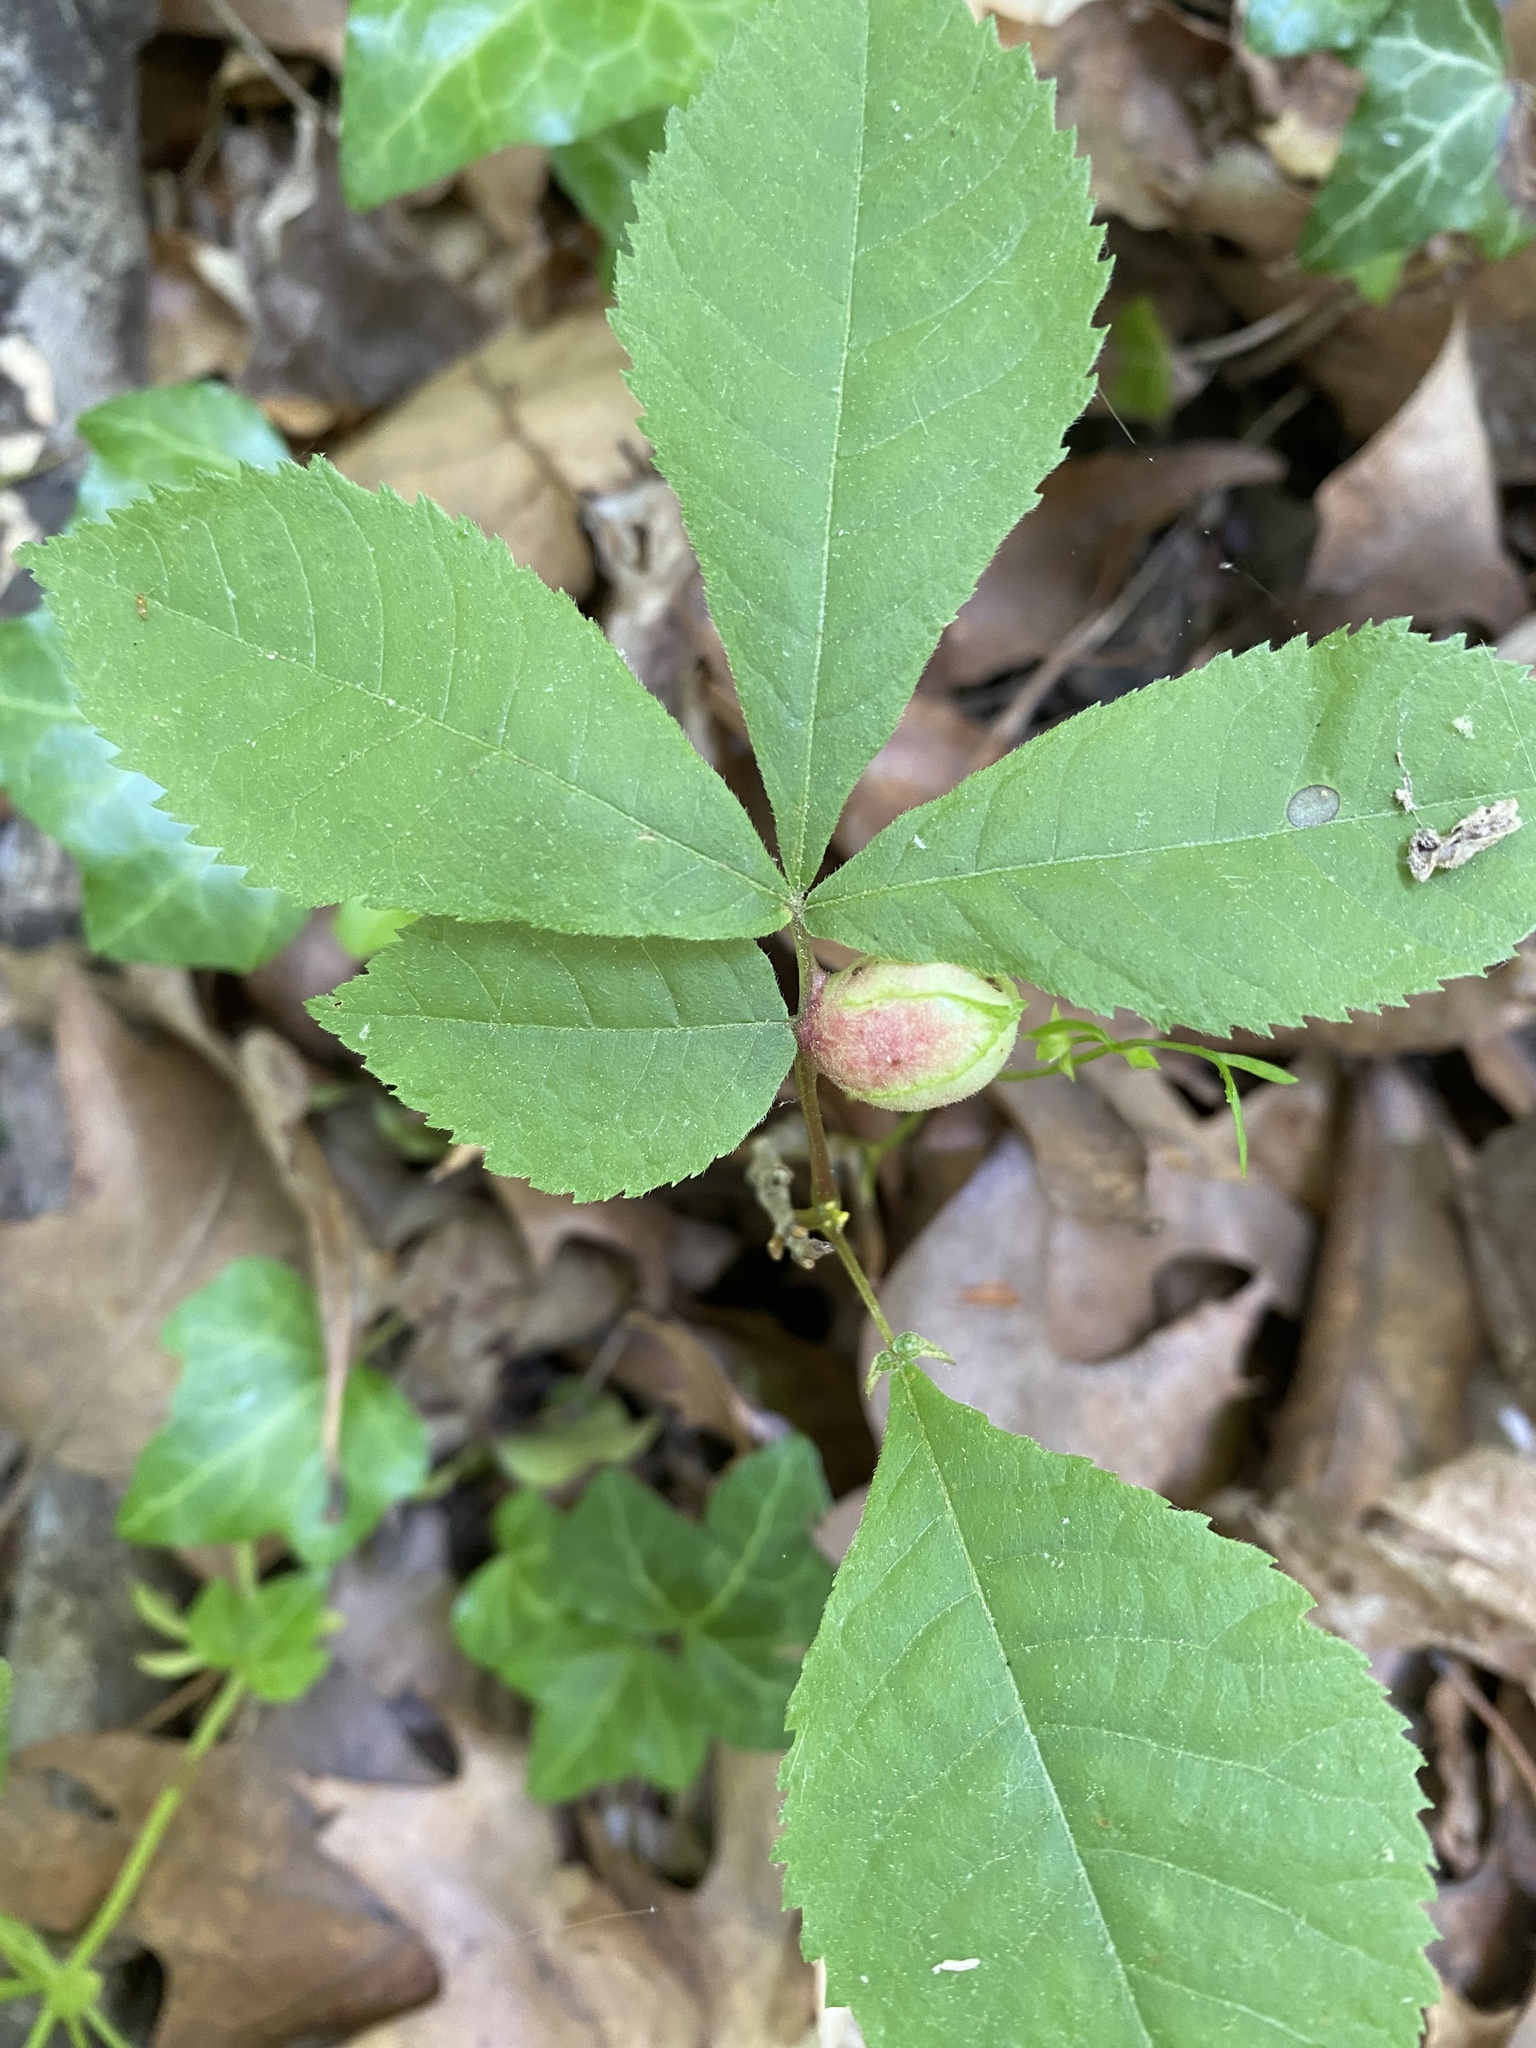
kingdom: Animalia
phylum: Arthropoda
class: Insecta
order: Hemiptera
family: Phylloxeridae
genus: Phylloxera
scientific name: Phylloxera
